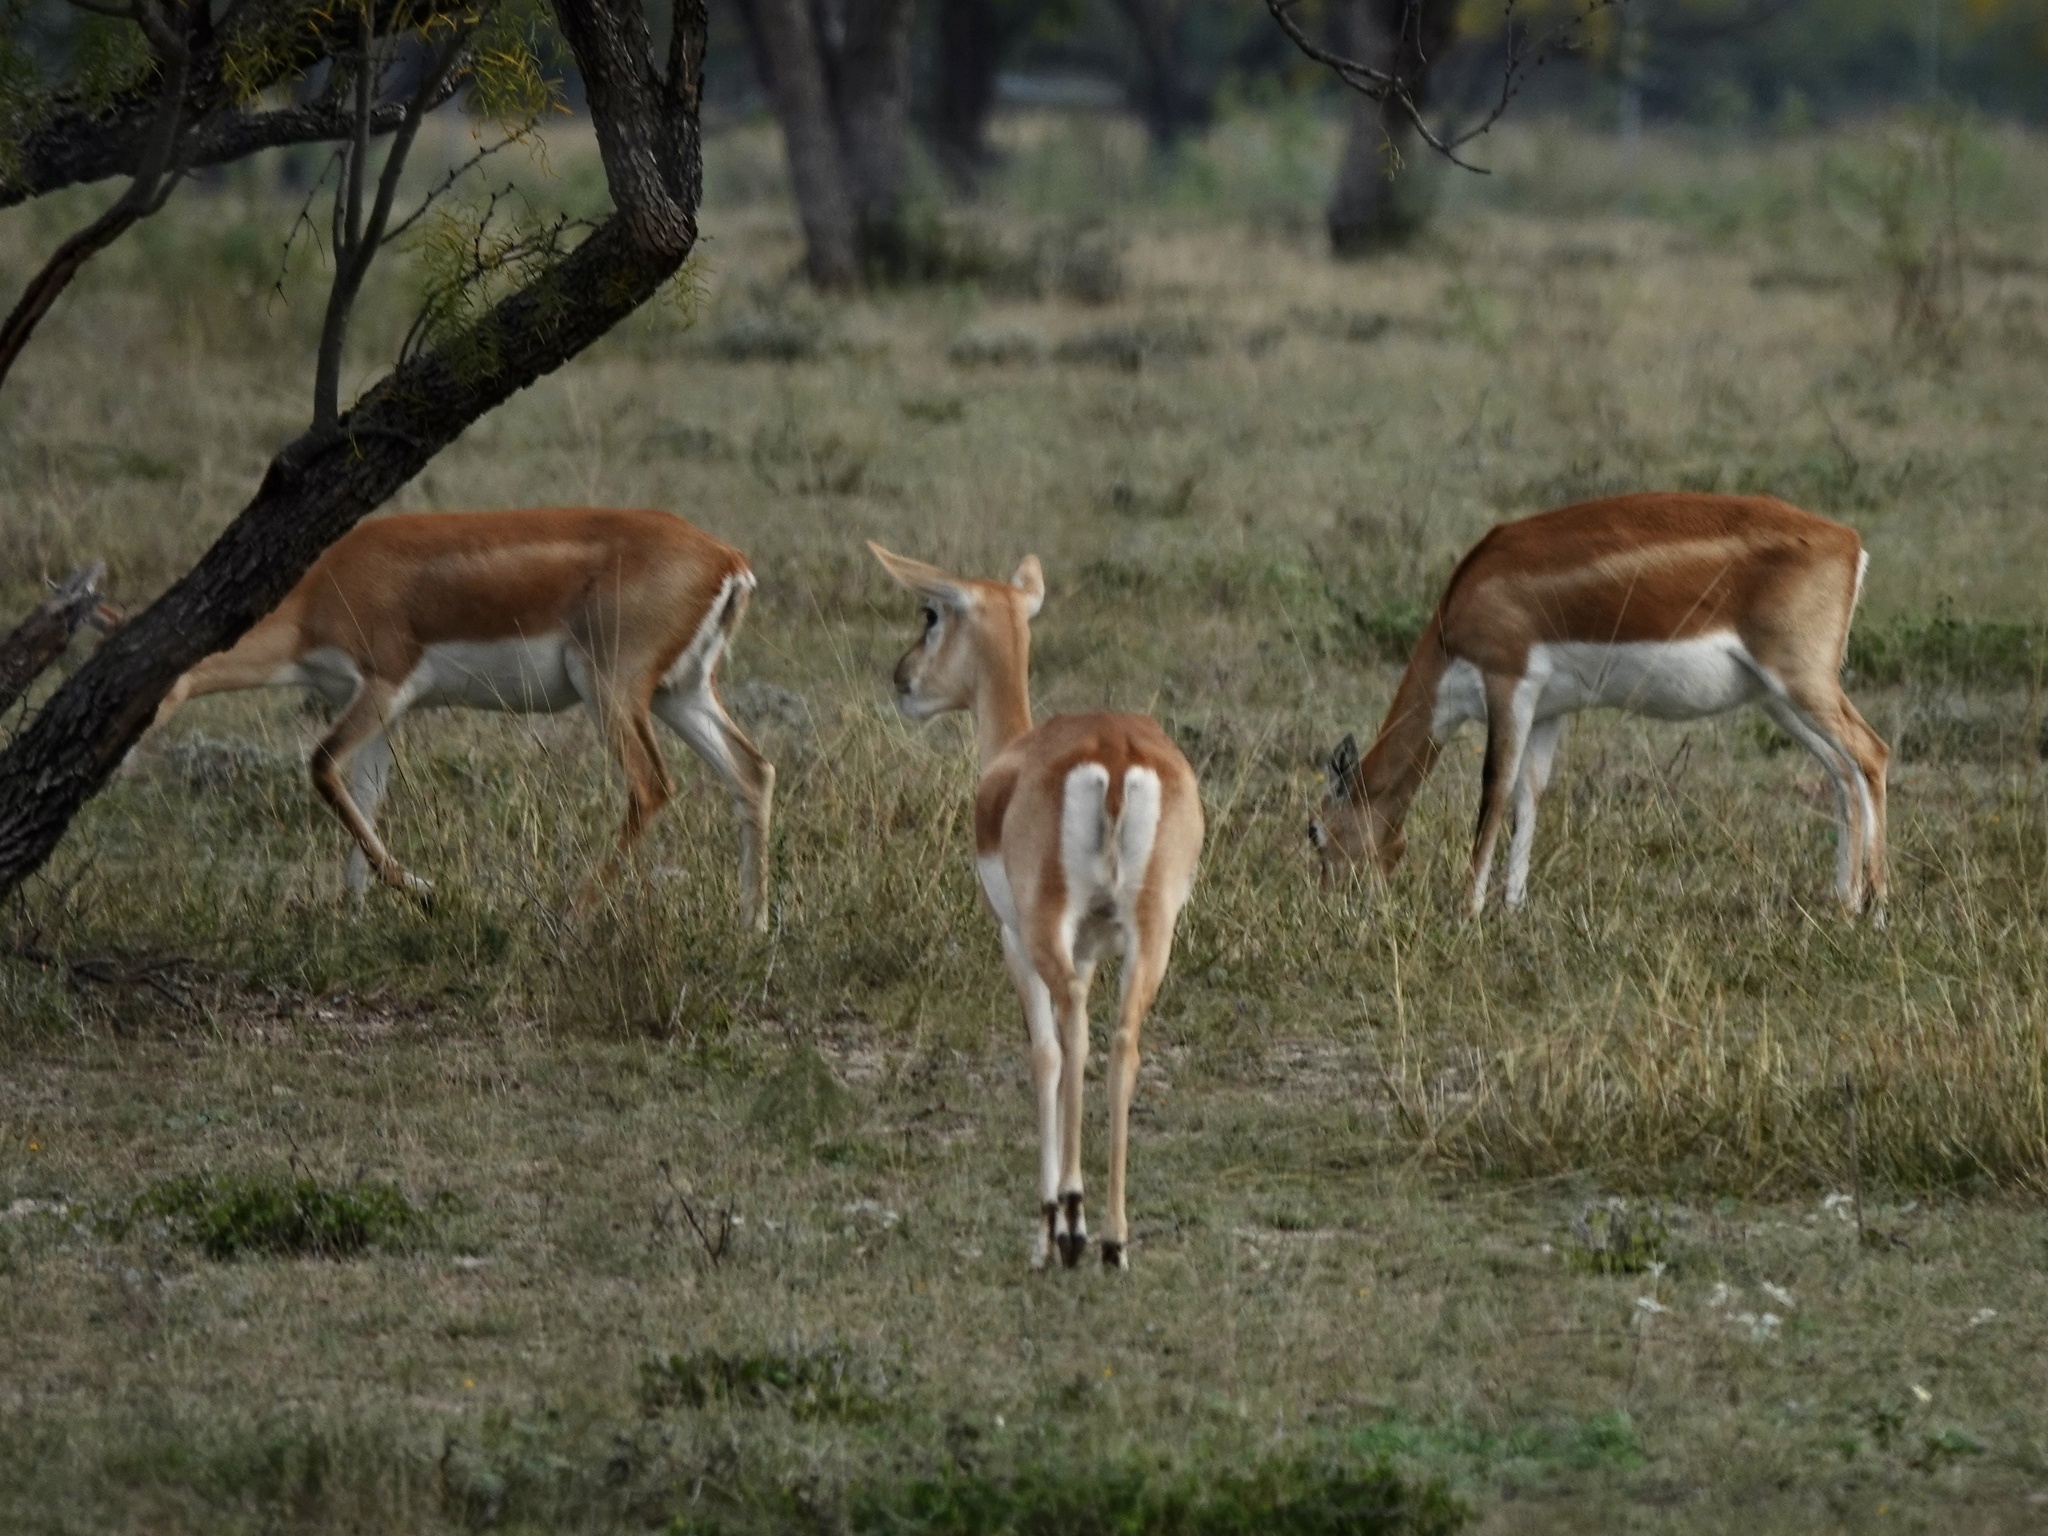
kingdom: Animalia
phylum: Chordata
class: Mammalia
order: Artiodactyla
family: Bovidae
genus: Antilope
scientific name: Antilope cervicapra
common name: Blackbuck
